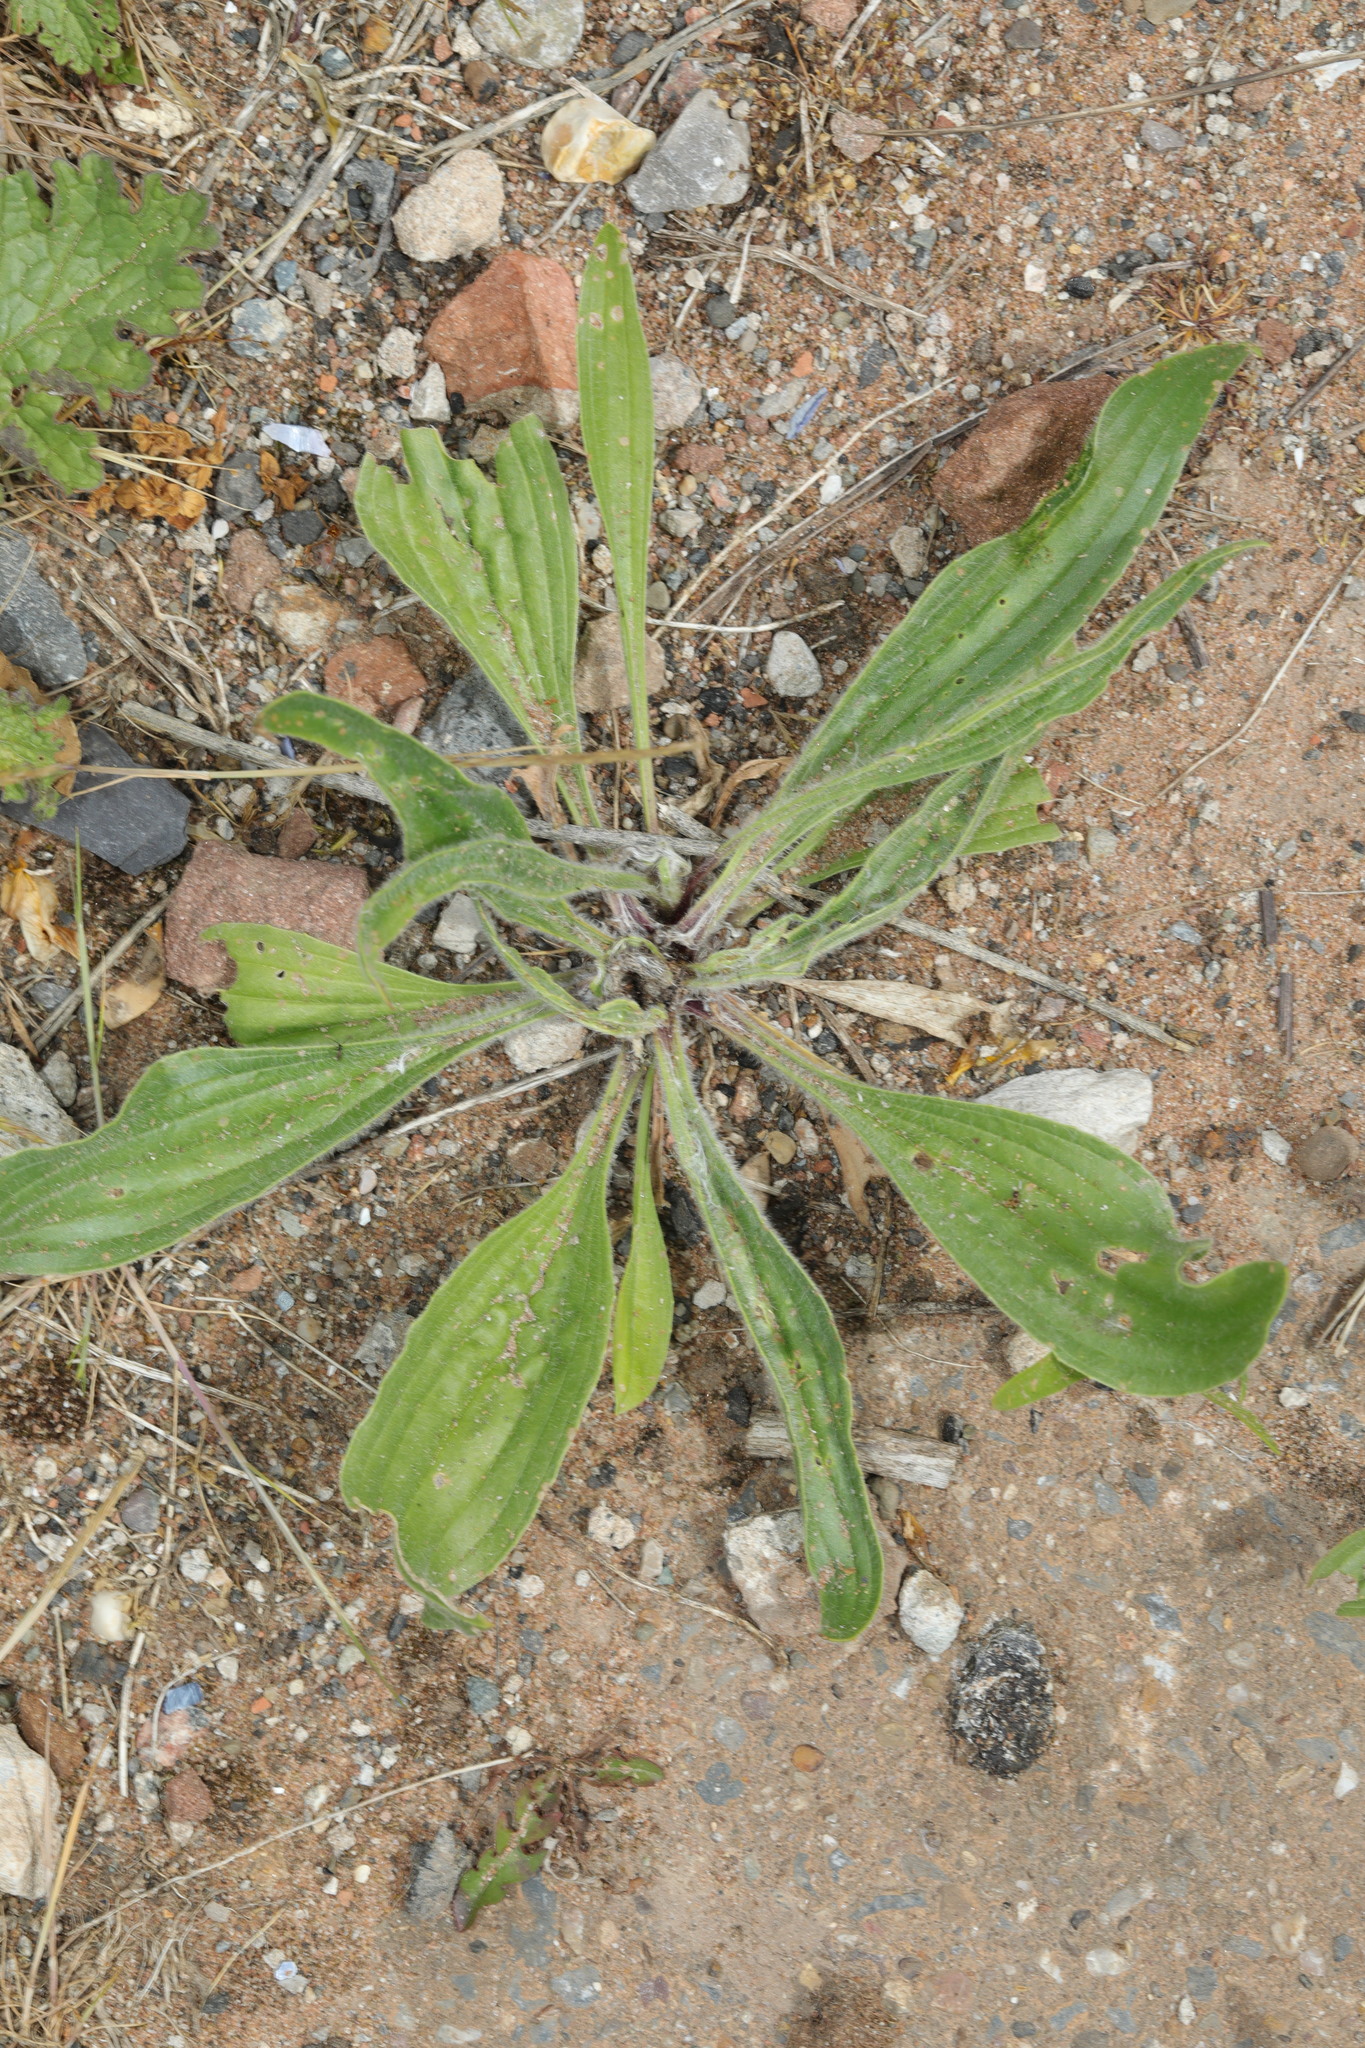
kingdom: Plantae
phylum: Tracheophyta
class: Magnoliopsida
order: Lamiales
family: Plantaginaceae
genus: Plantago
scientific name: Plantago lanceolata
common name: Ribwort plantain
